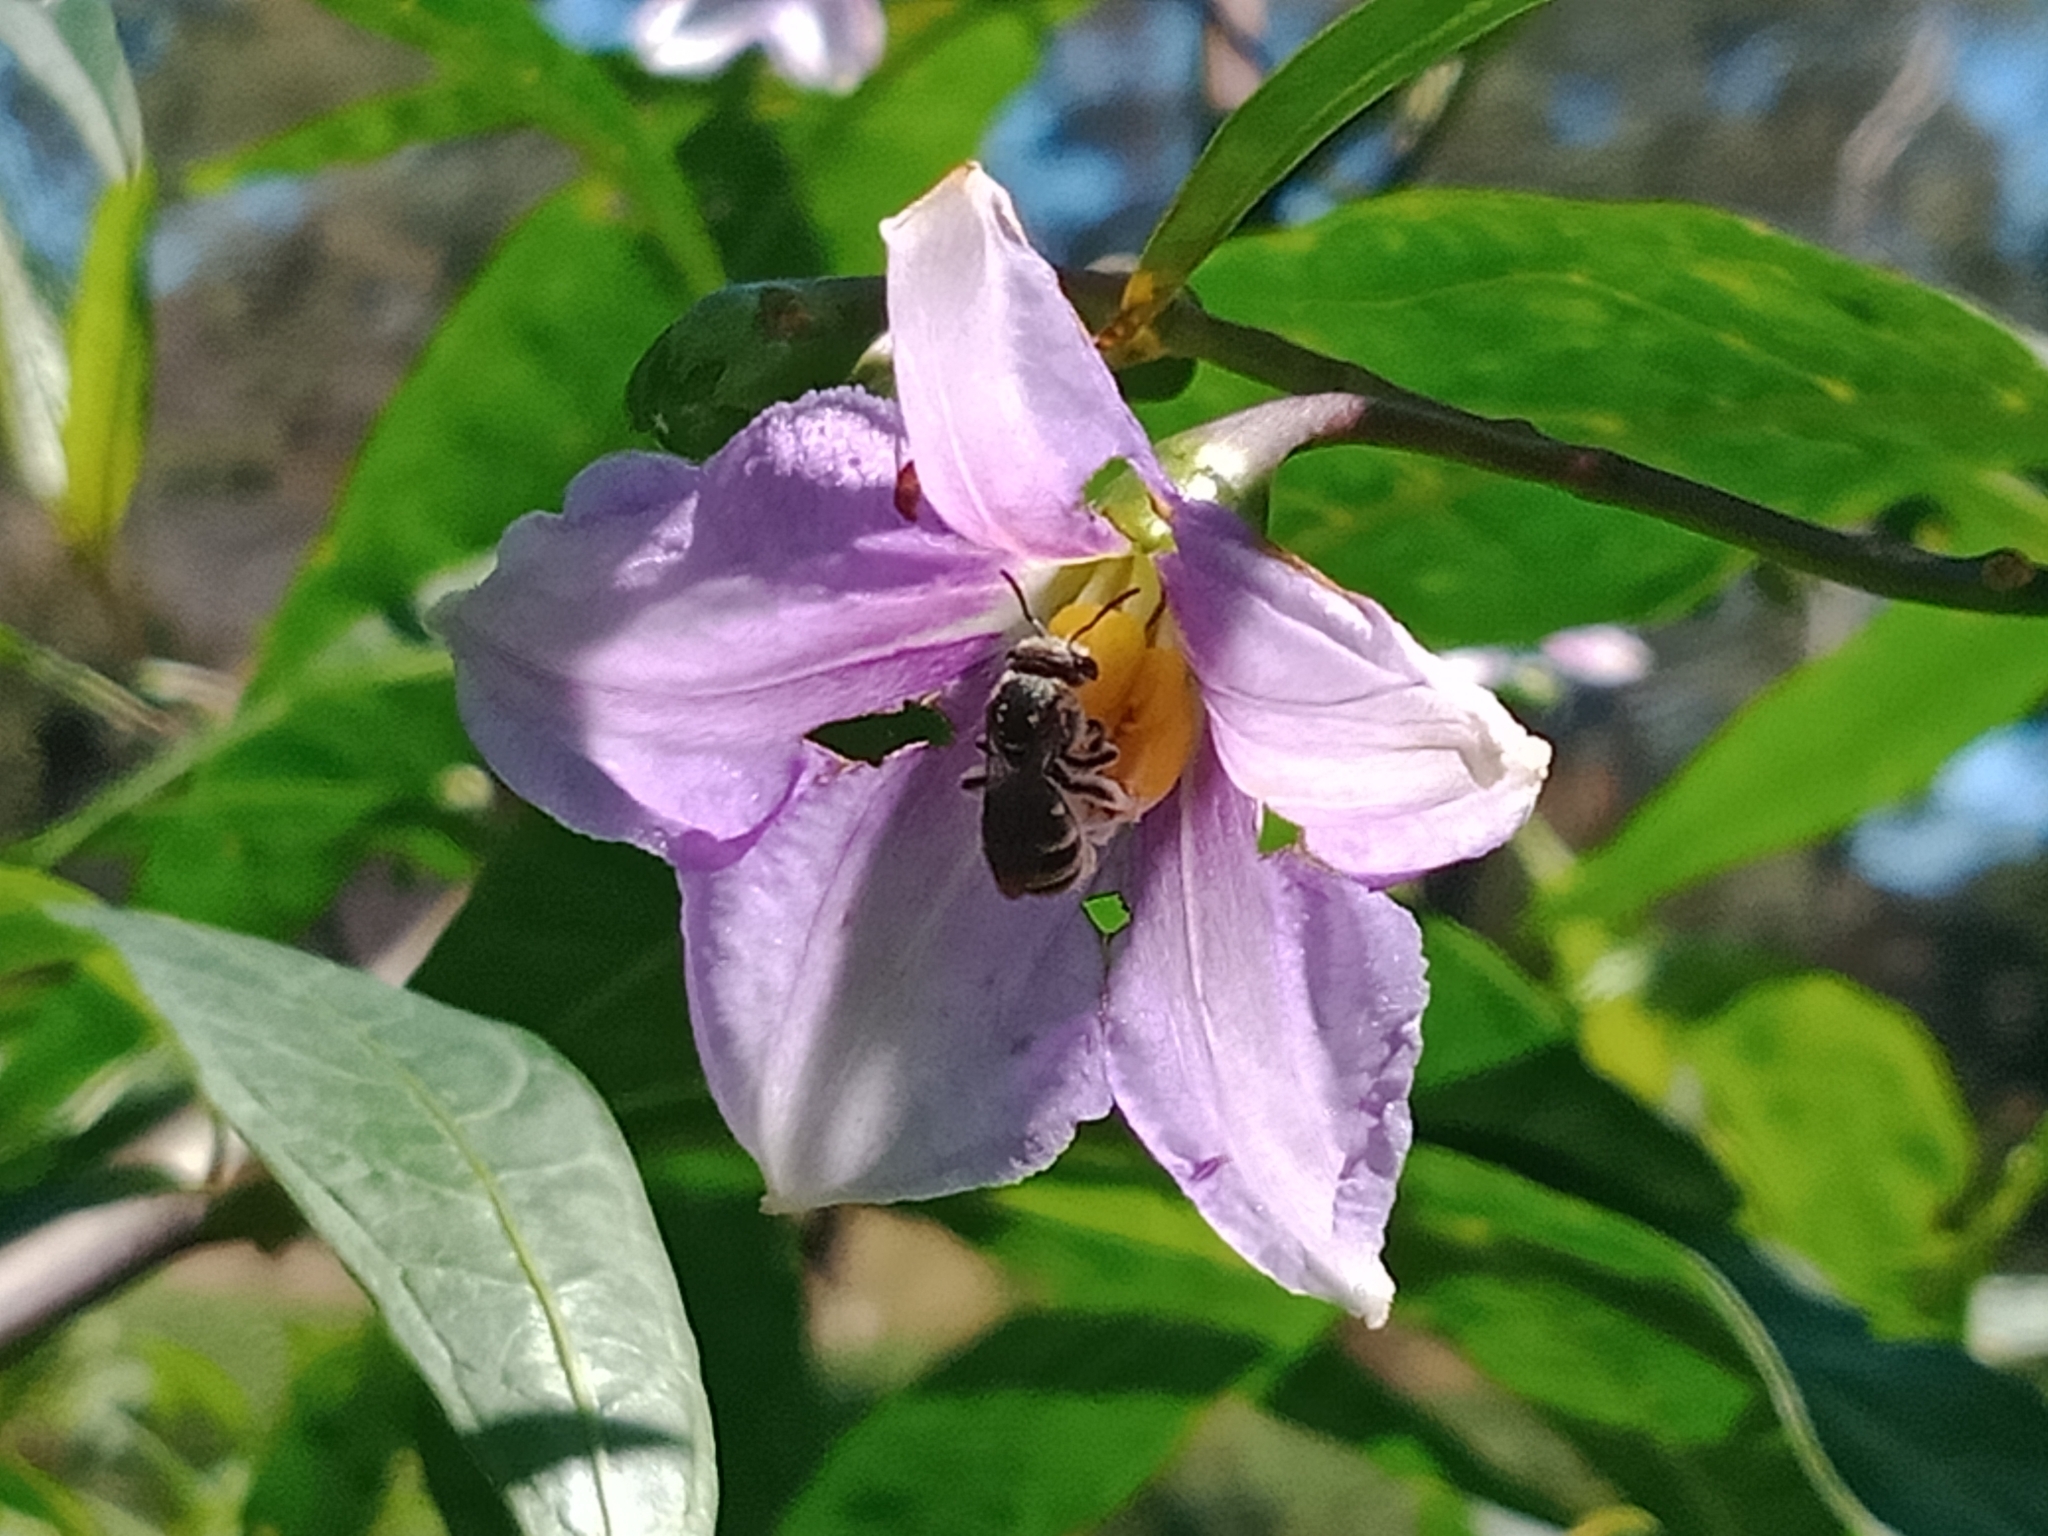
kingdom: Plantae
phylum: Tracheophyta
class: Magnoliopsida
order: Solanales
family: Solanaceae
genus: Solanum
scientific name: Solanum aviculare
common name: New zealand nightshade
